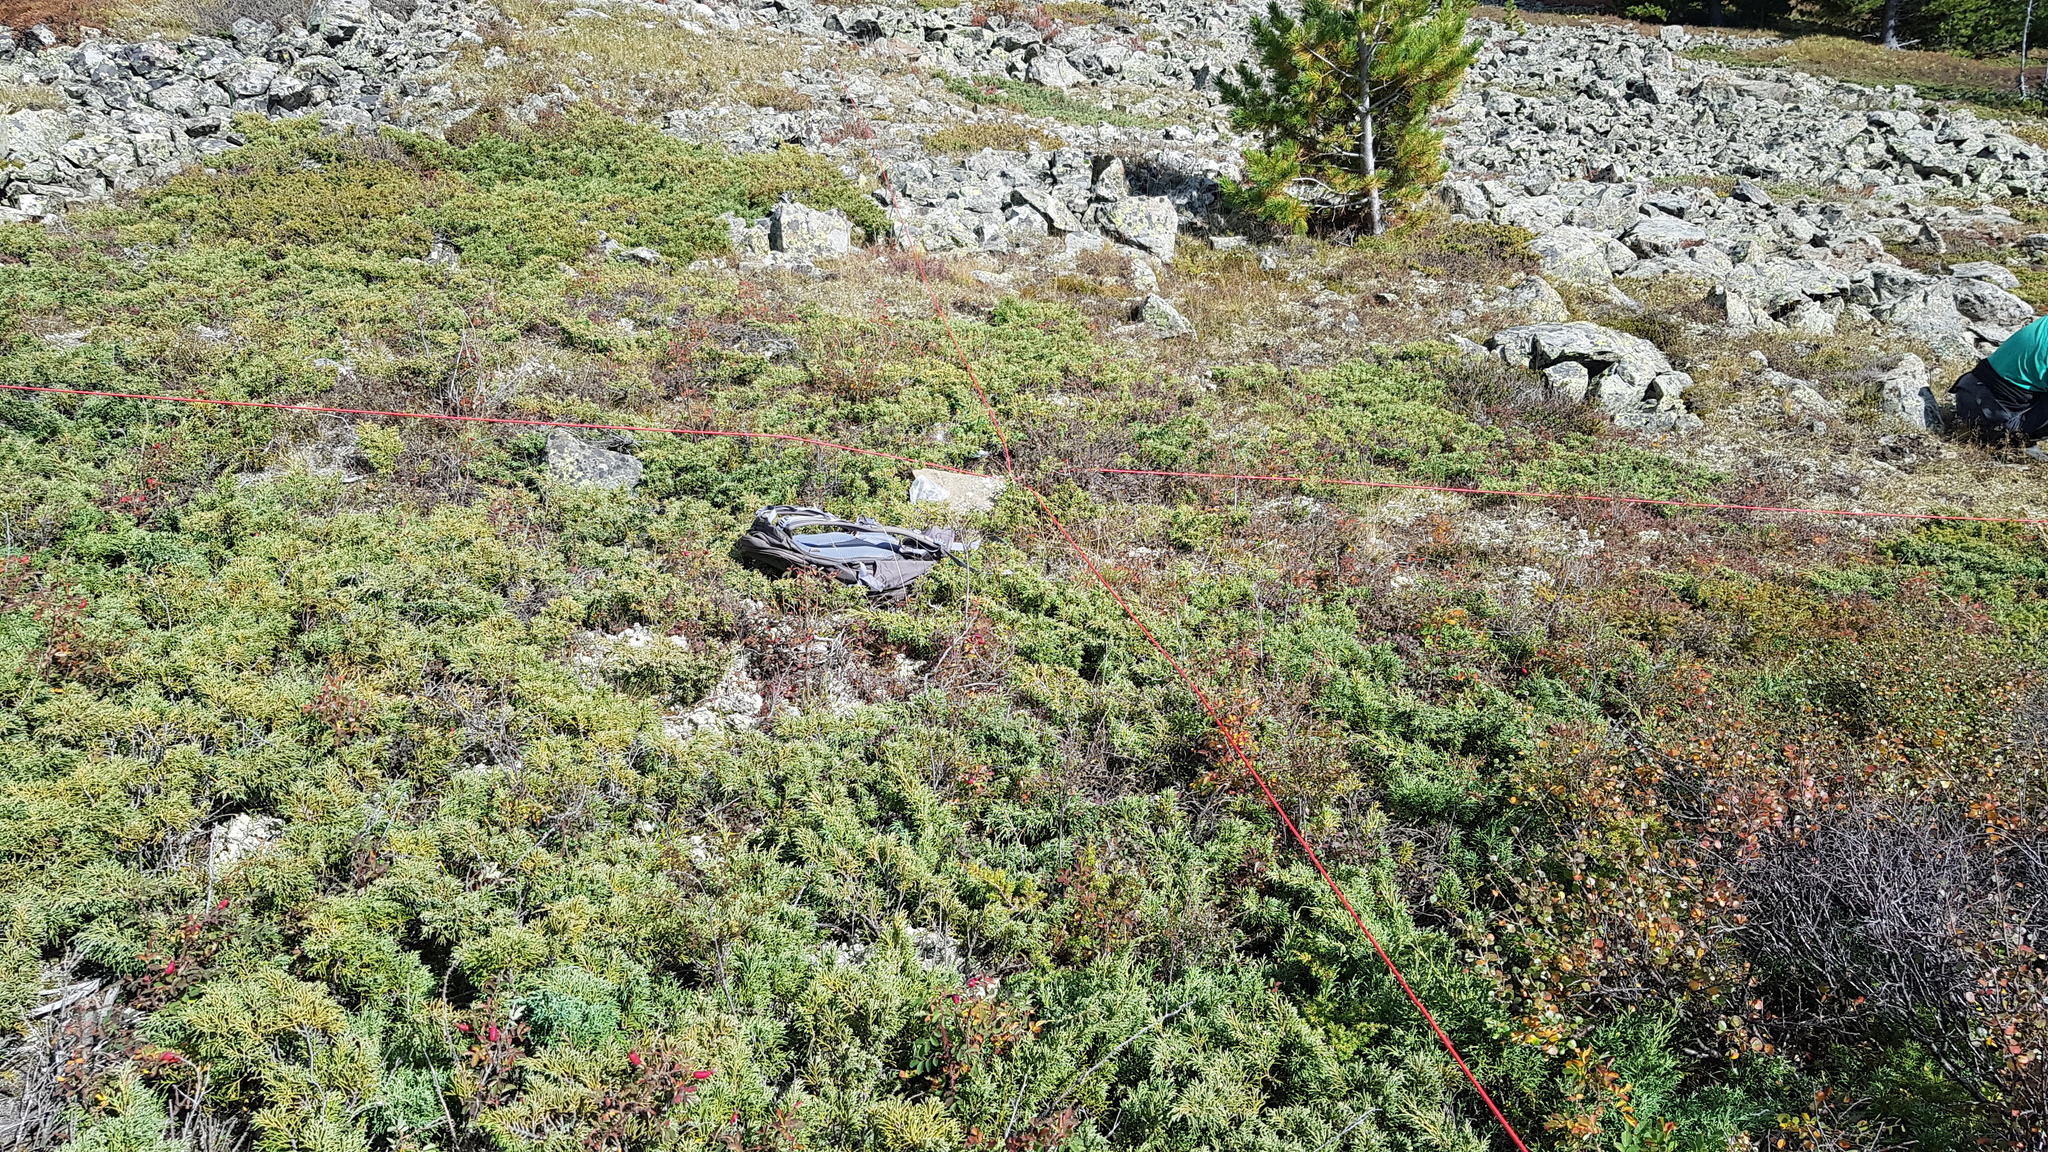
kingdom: Plantae
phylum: Tracheophyta
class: Pinopsida
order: Pinales
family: Cupressaceae
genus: Juniperus
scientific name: Juniperus communis
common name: Common juniper
